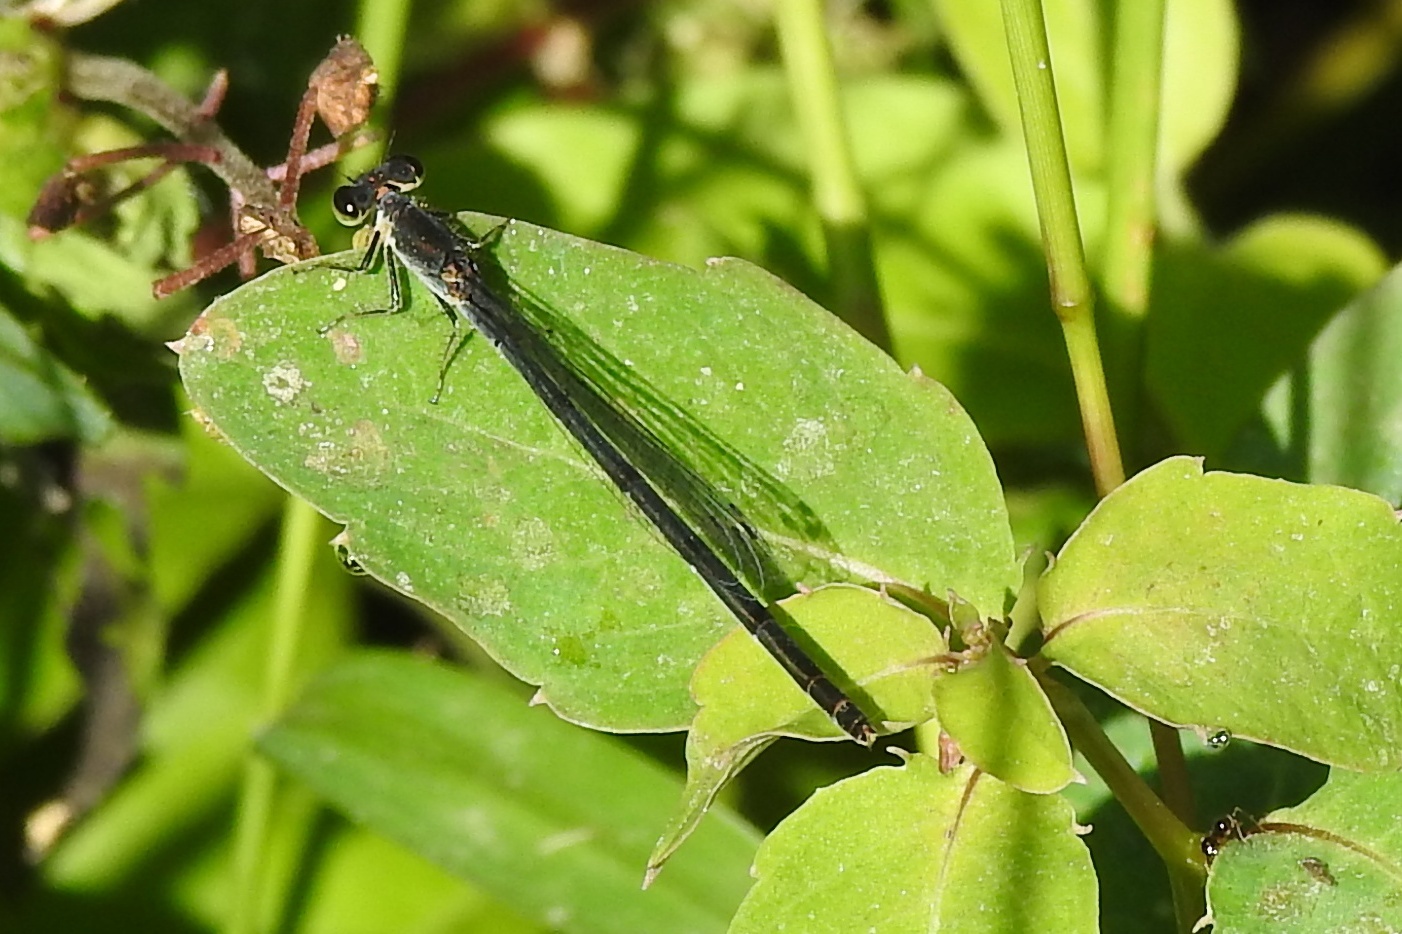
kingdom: Animalia
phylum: Arthropoda
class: Insecta
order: Odonata
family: Coenagrionidae
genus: Ischnura
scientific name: Ischnura posita
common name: Fragile forktail
